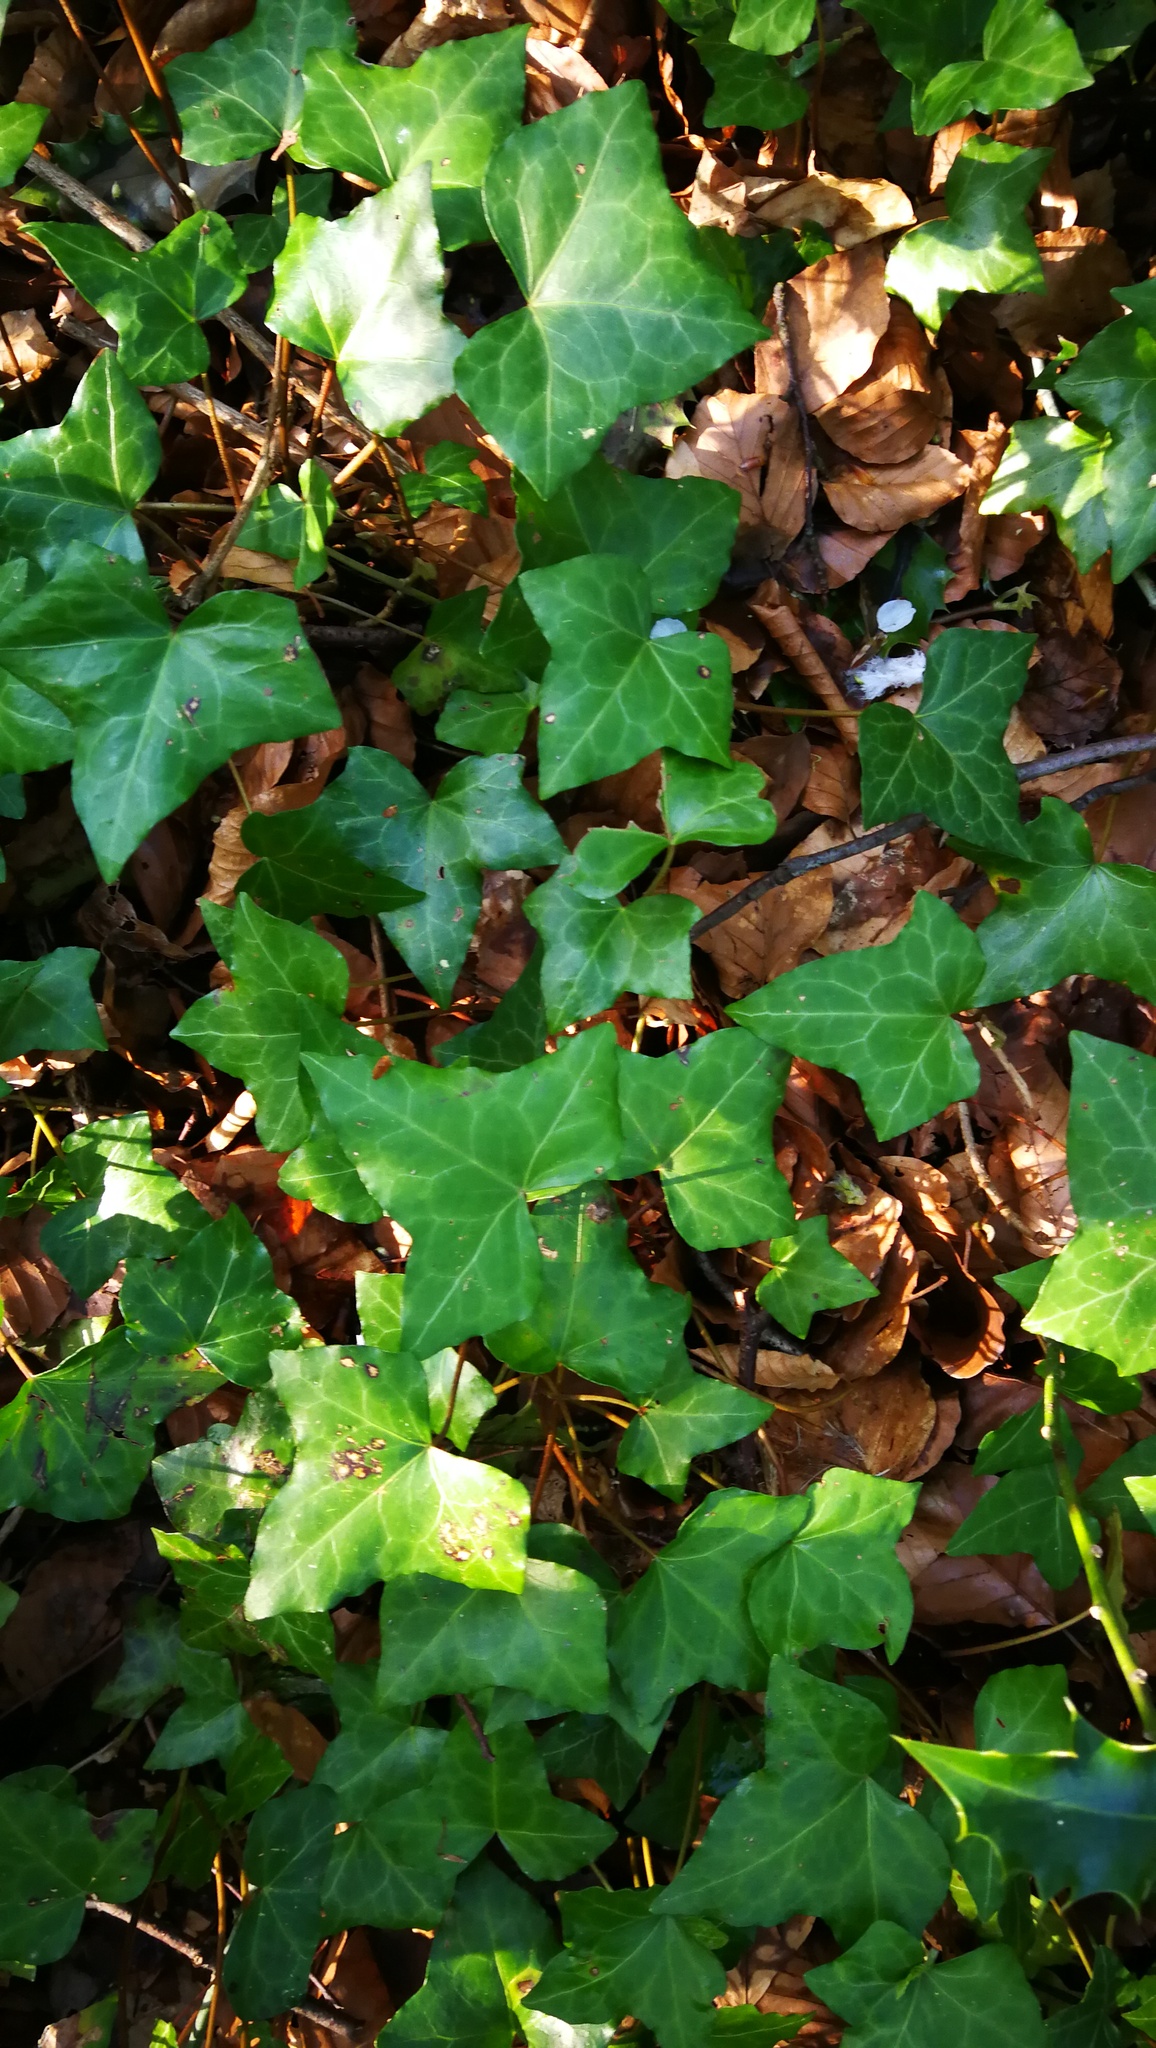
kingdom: Plantae
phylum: Tracheophyta
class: Magnoliopsida
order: Apiales
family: Araliaceae
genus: Hedera
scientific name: Hedera helix
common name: Ivy
